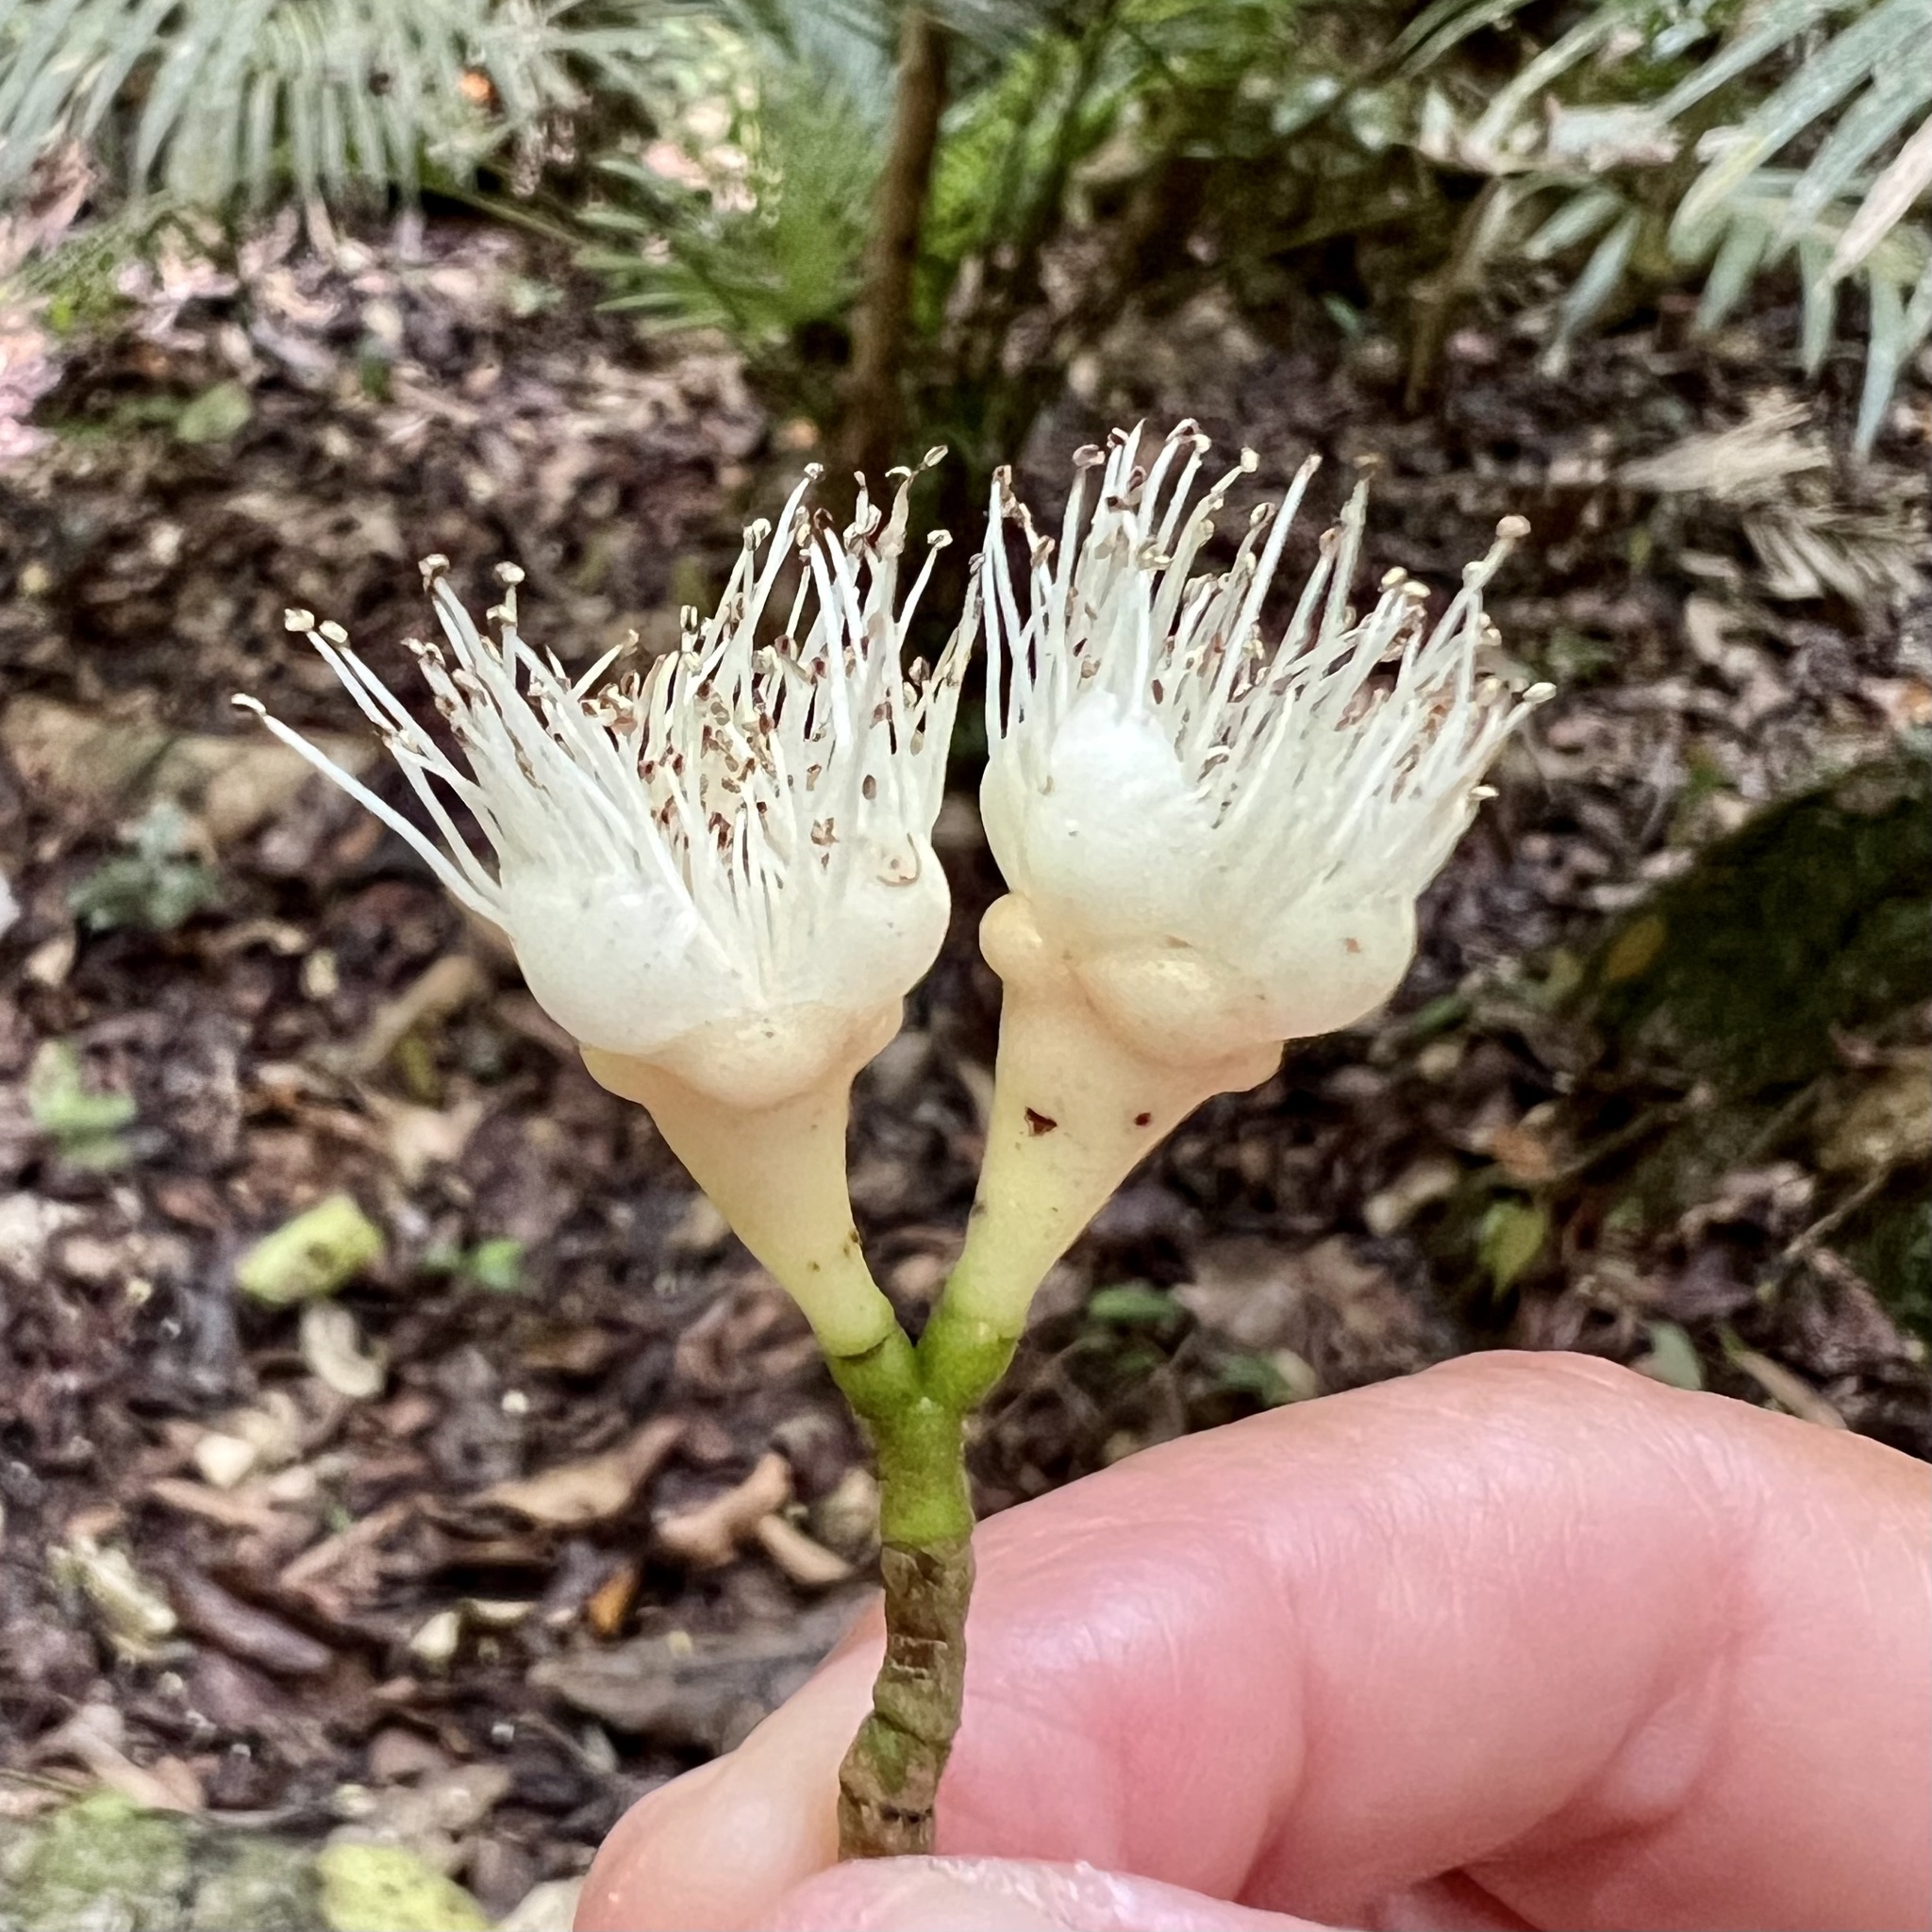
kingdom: Plantae
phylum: Tracheophyta
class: Magnoliopsida
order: Myrtales
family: Myrtaceae
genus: Syzygium
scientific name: Syzygium cormiflorum
